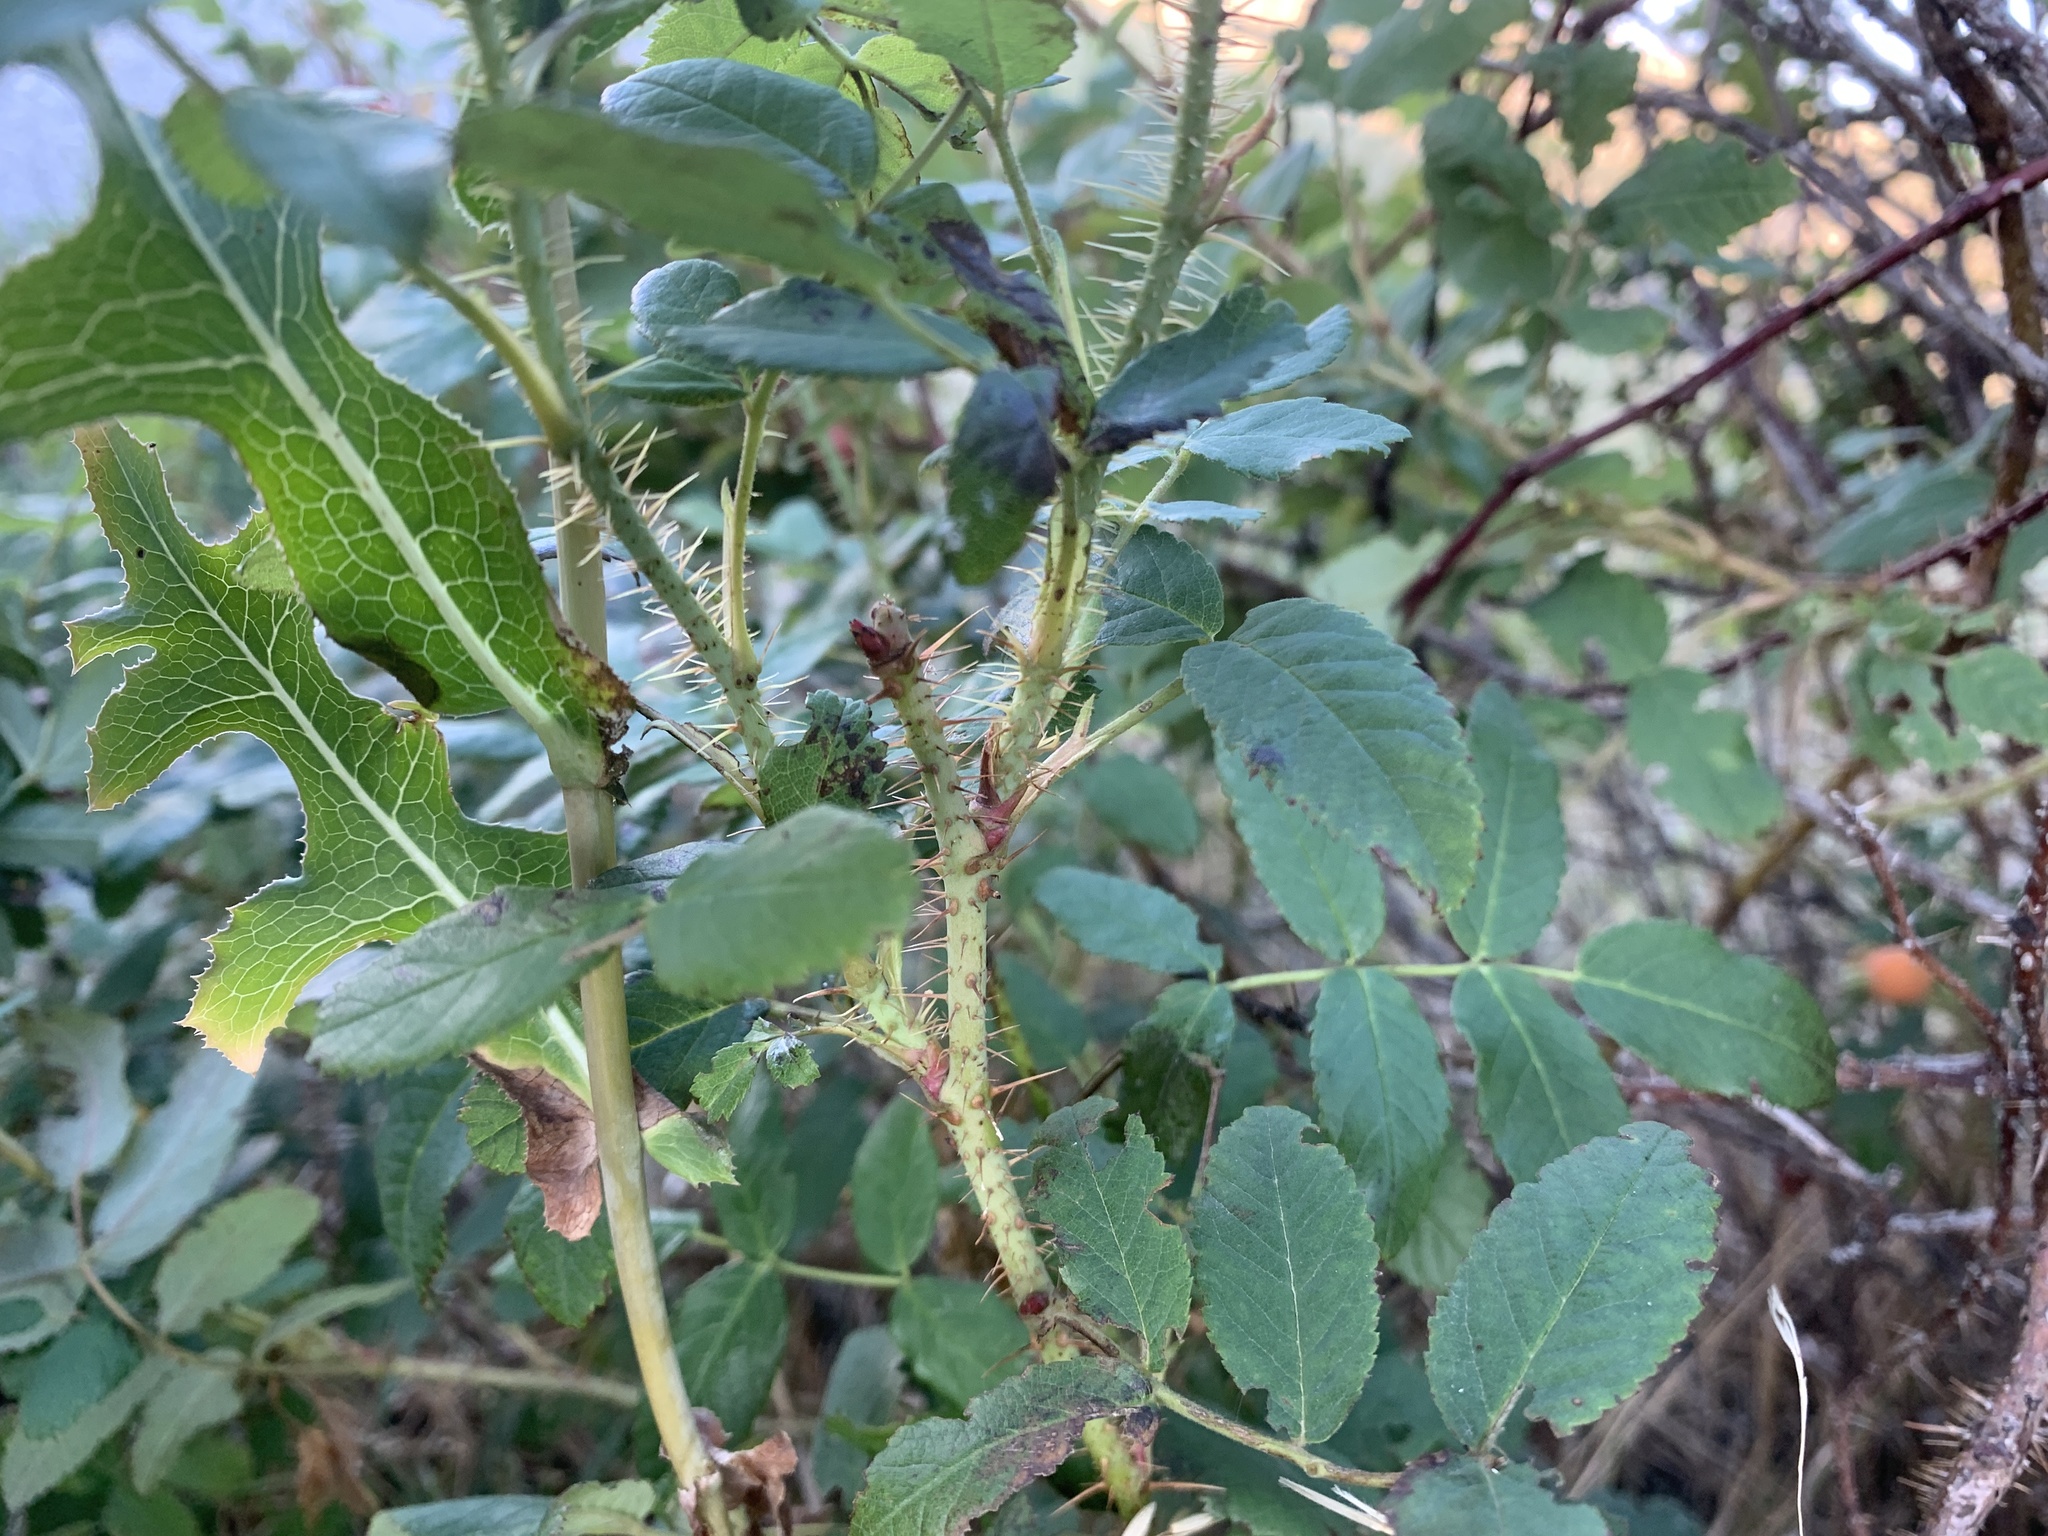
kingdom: Plantae
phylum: Tracheophyta
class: Magnoliopsida
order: Rosales
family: Rosaceae
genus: Rosa
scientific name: Rosa acicularis
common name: Prickly rose
